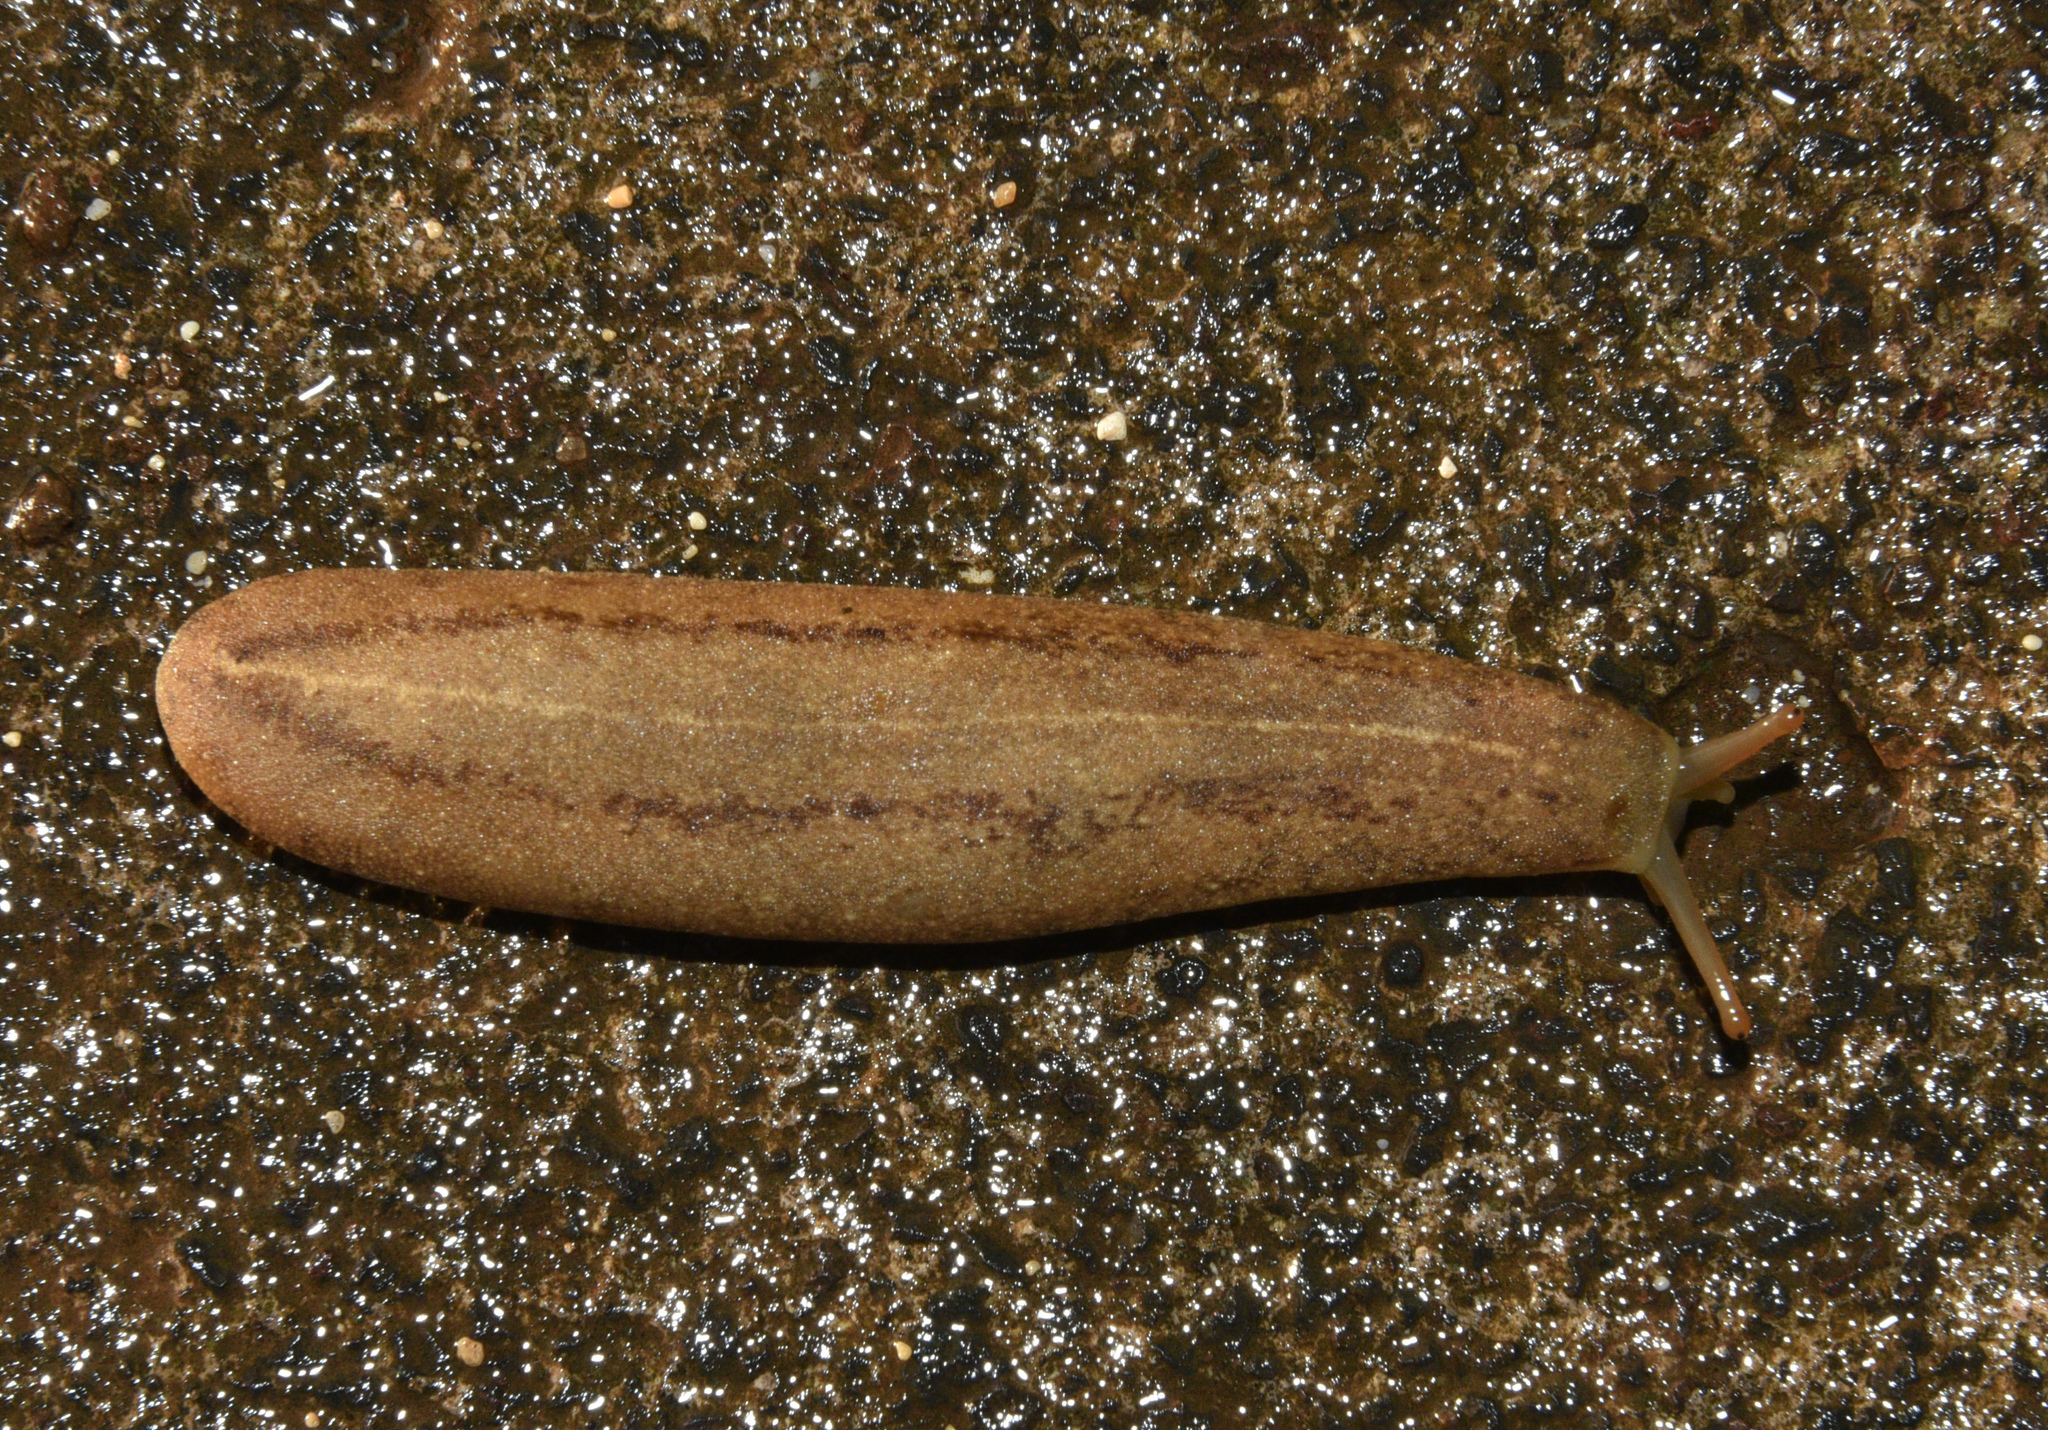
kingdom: Animalia
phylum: Mollusca
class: Gastropoda
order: Systellommatophora
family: Veronicellidae
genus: Veronicella
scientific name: Veronicella cubensis
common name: Two striped slug
